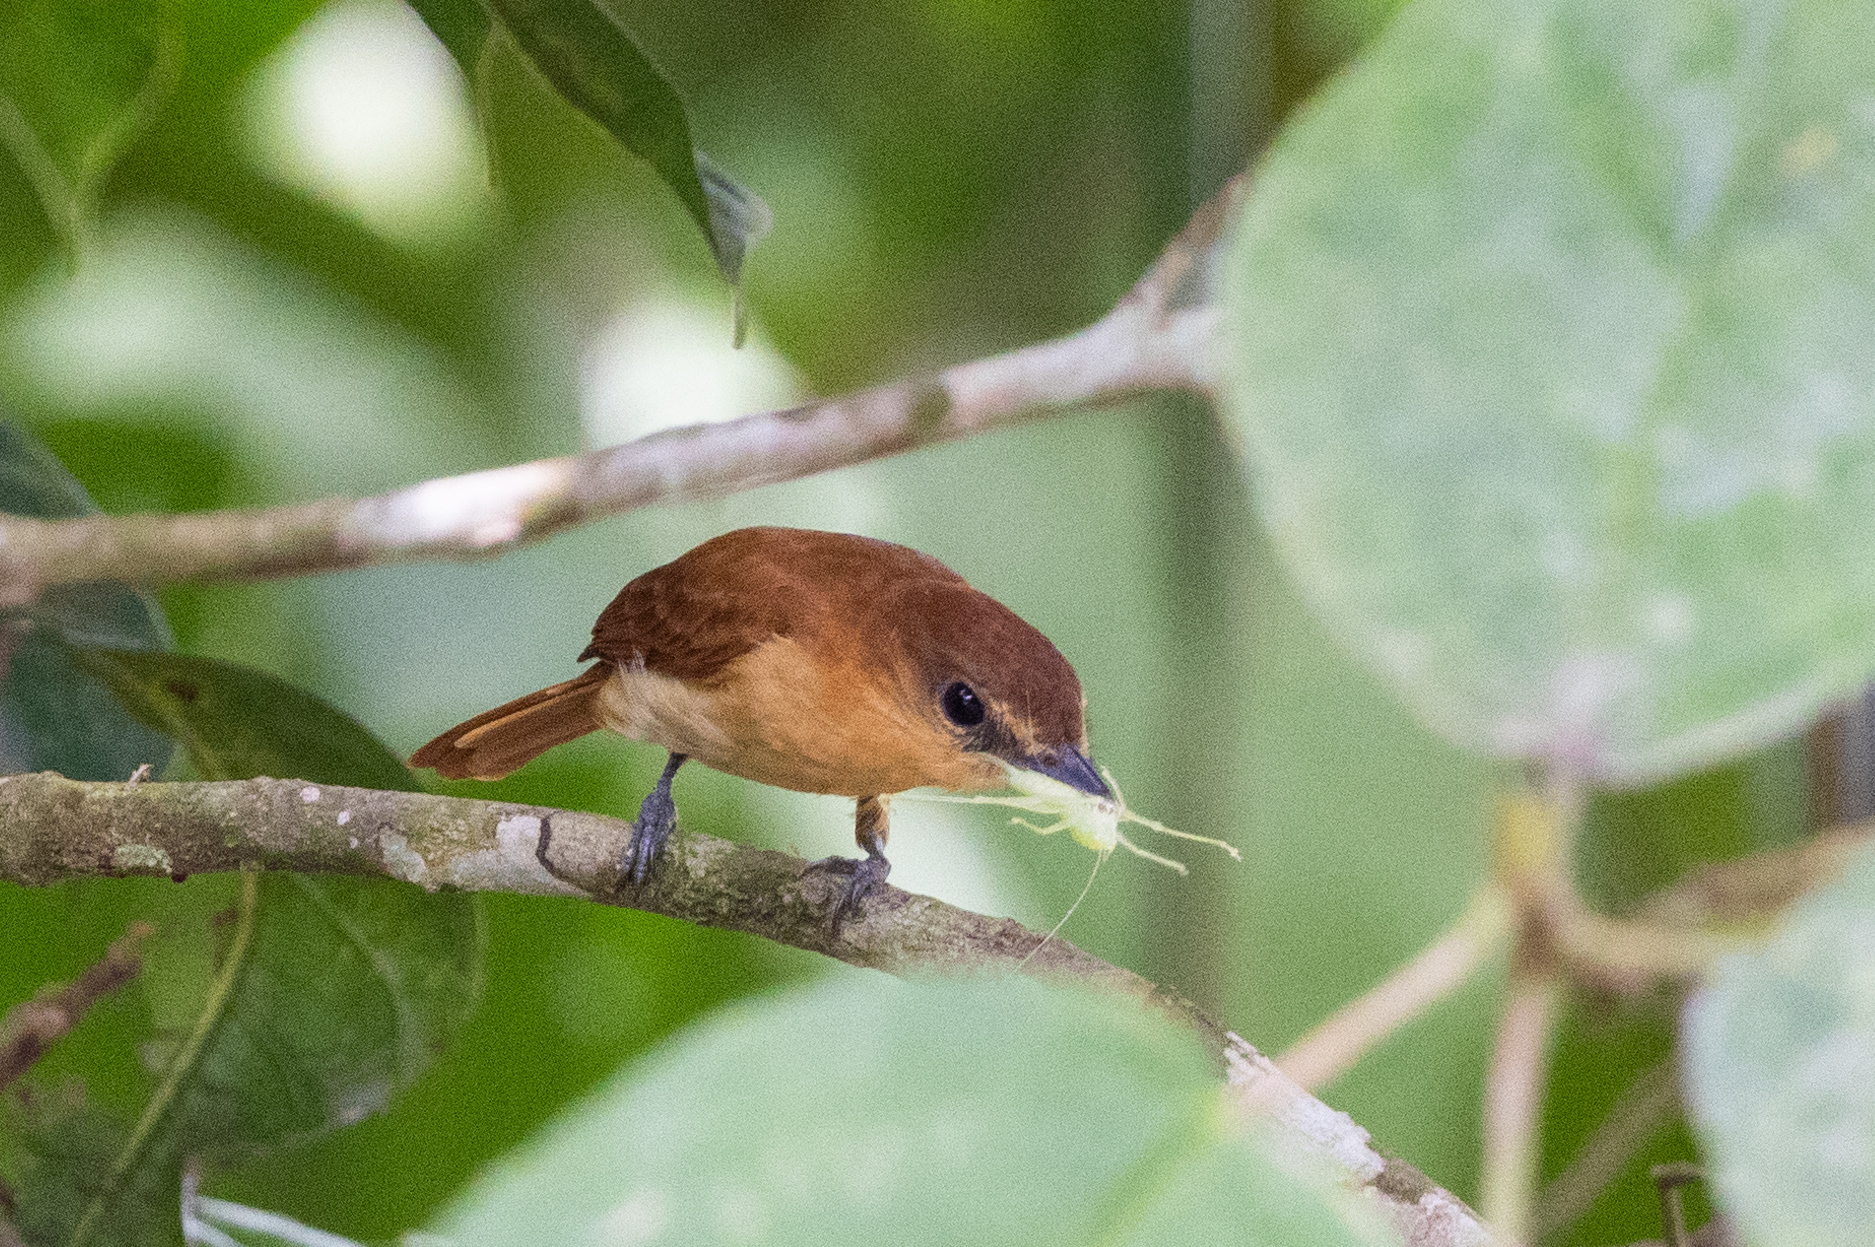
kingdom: Animalia
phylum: Chordata
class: Aves
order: Passeriformes
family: Cotingidae
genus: Pachyramphus
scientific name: Pachyramphus cinnamomeus
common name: Cinnamon becard
